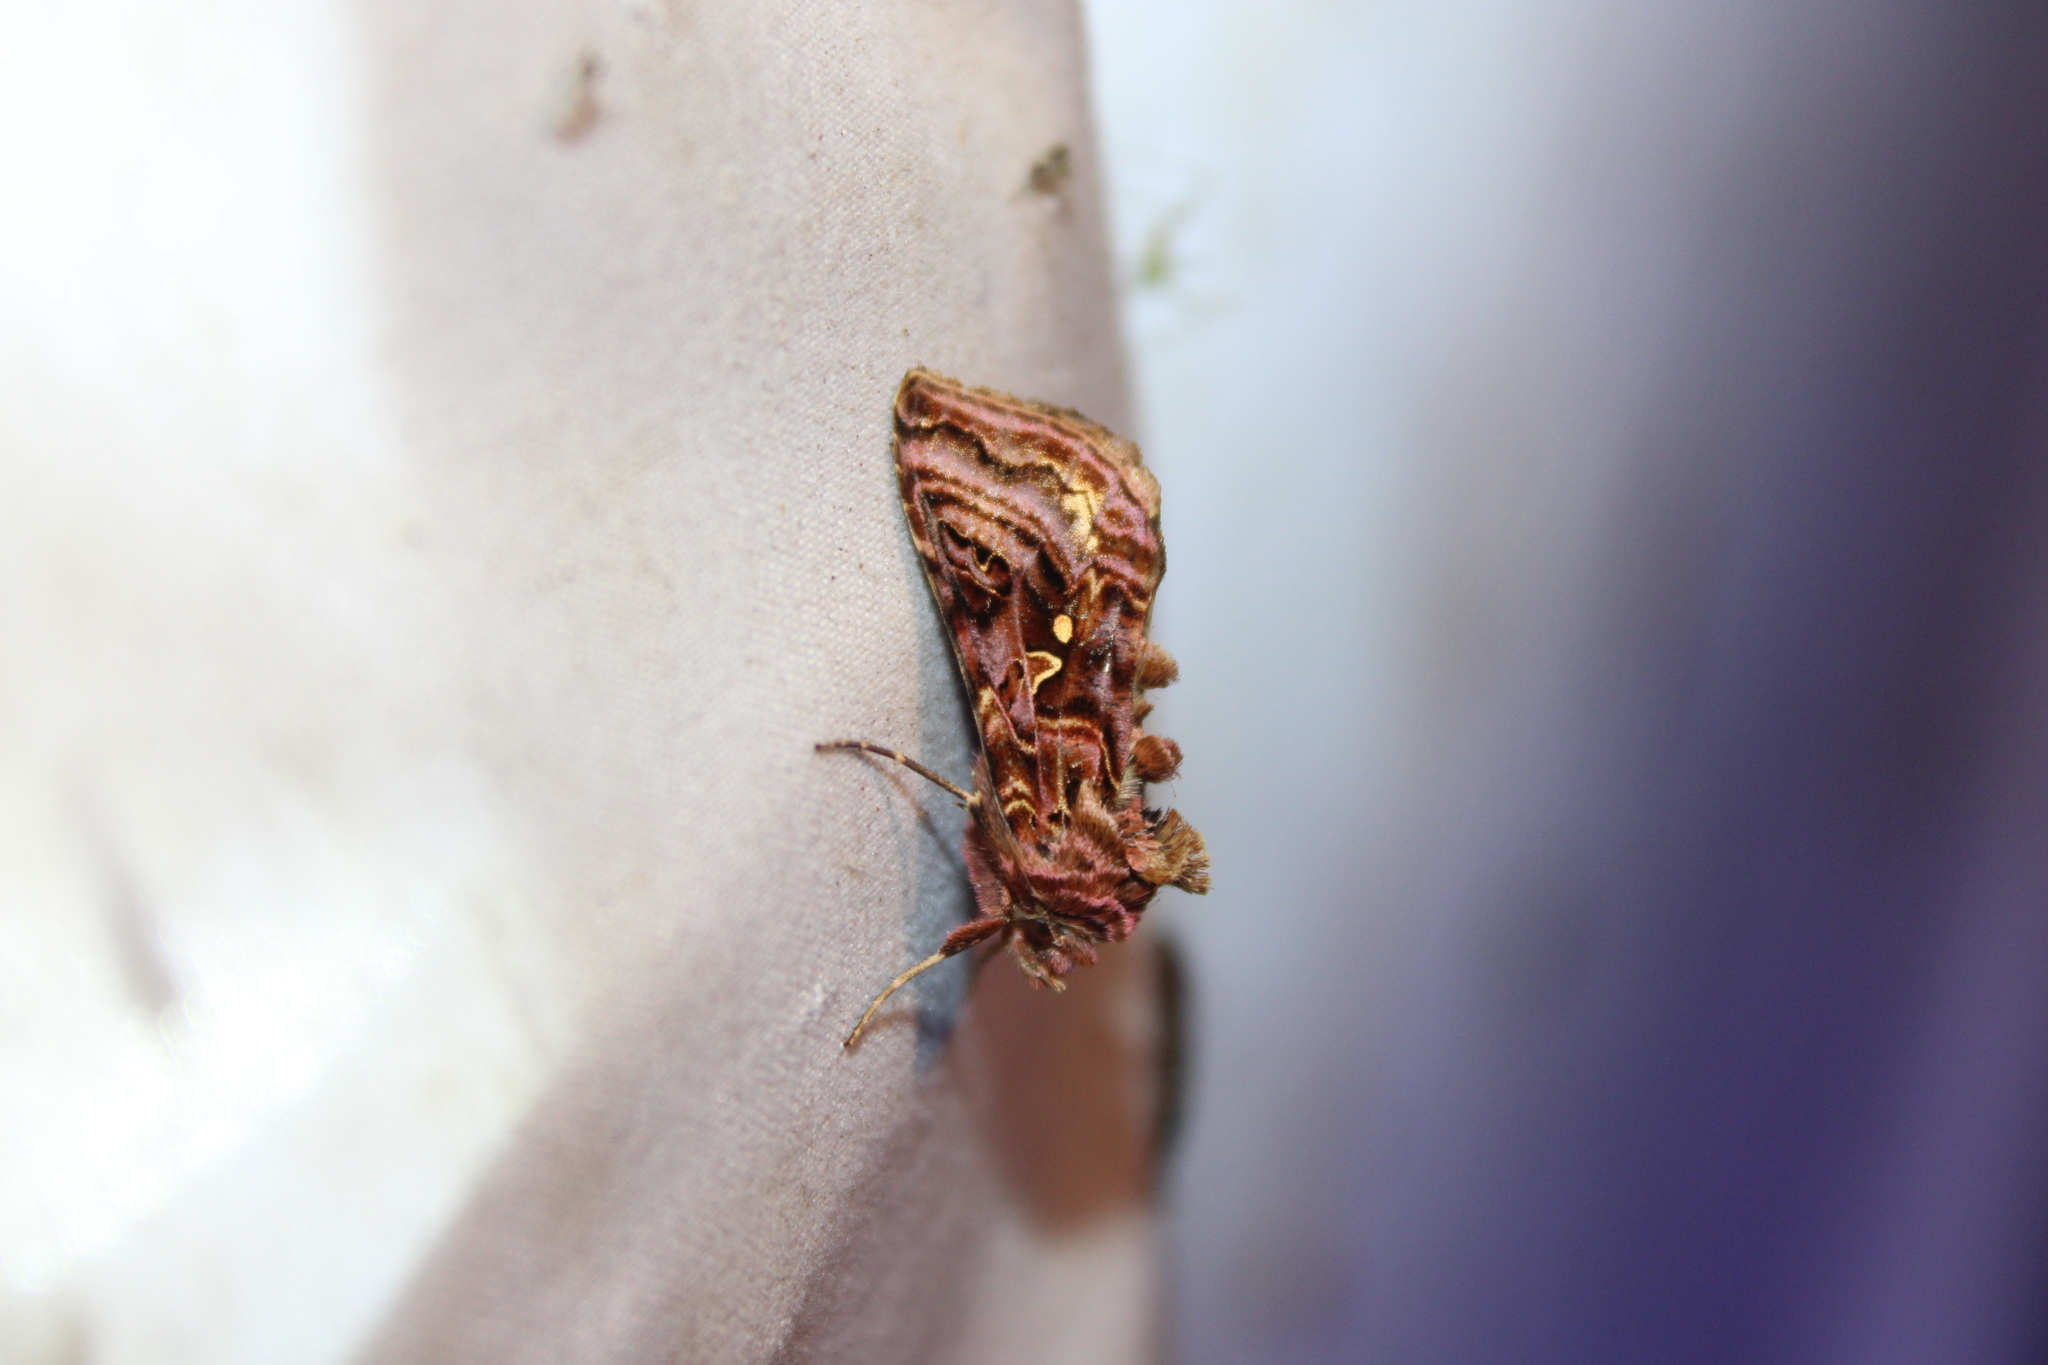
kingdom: Animalia
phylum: Arthropoda
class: Insecta
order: Lepidoptera
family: Noctuidae
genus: Autographa
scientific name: Autographa mappa
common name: Wavy chestnut y moth
